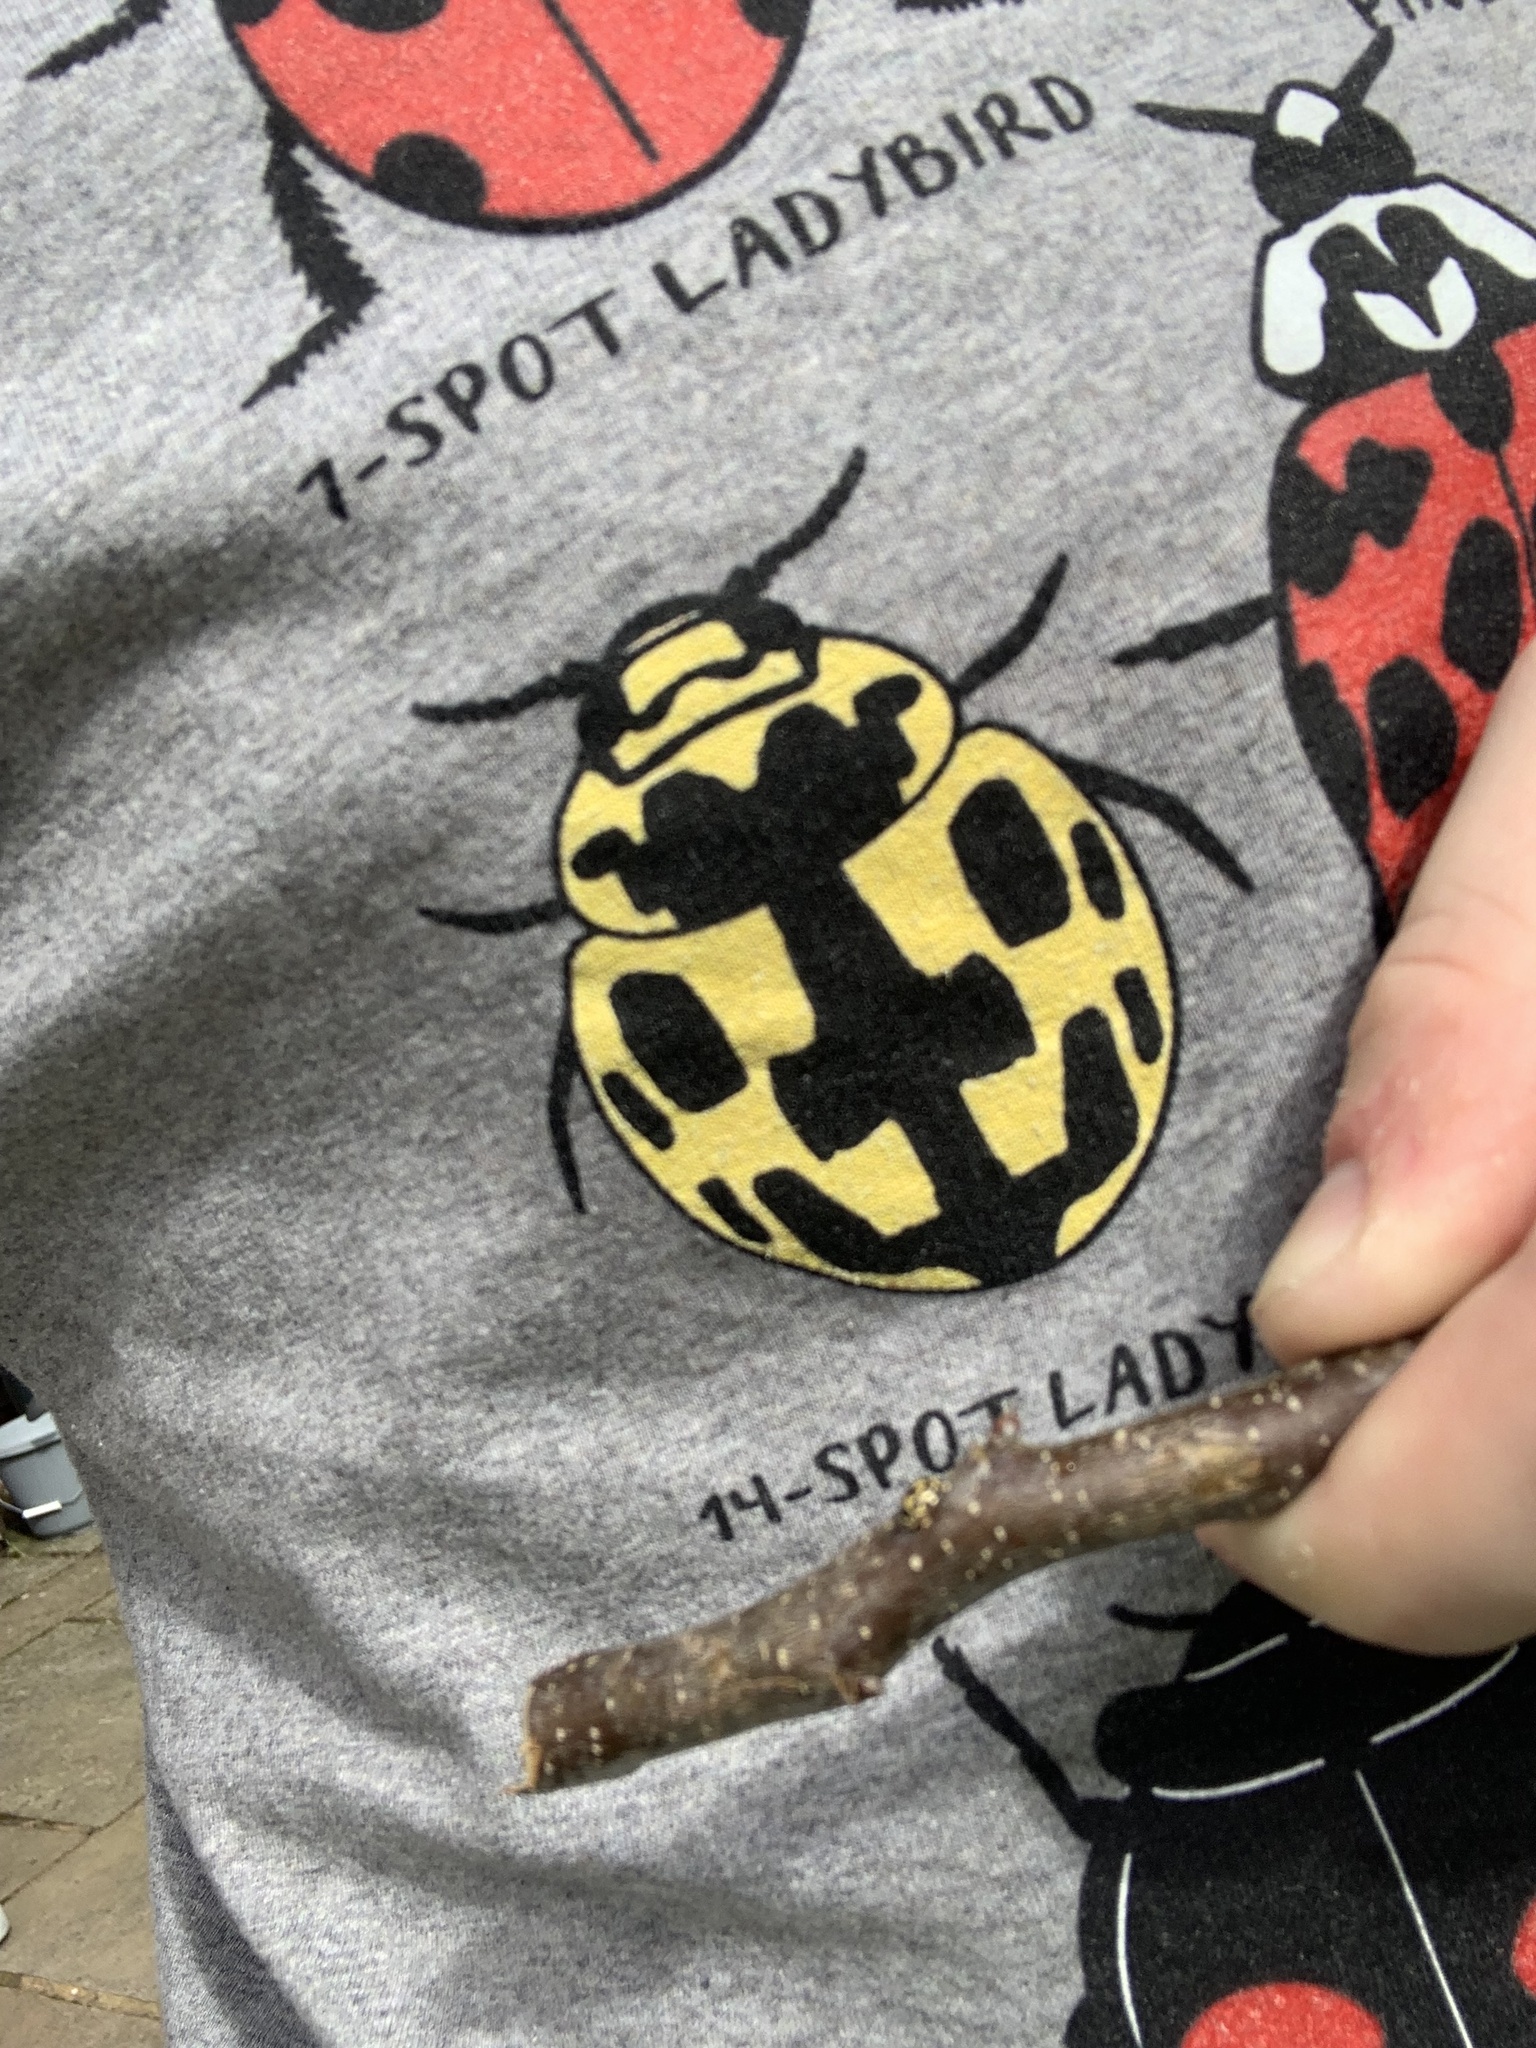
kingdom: Animalia
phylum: Arthropoda
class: Insecta
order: Coleoptera
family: Coccinellidae
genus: Propylaea
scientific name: Propylaea quatuordecimpunctata
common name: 14-spotted ladybird beetle
